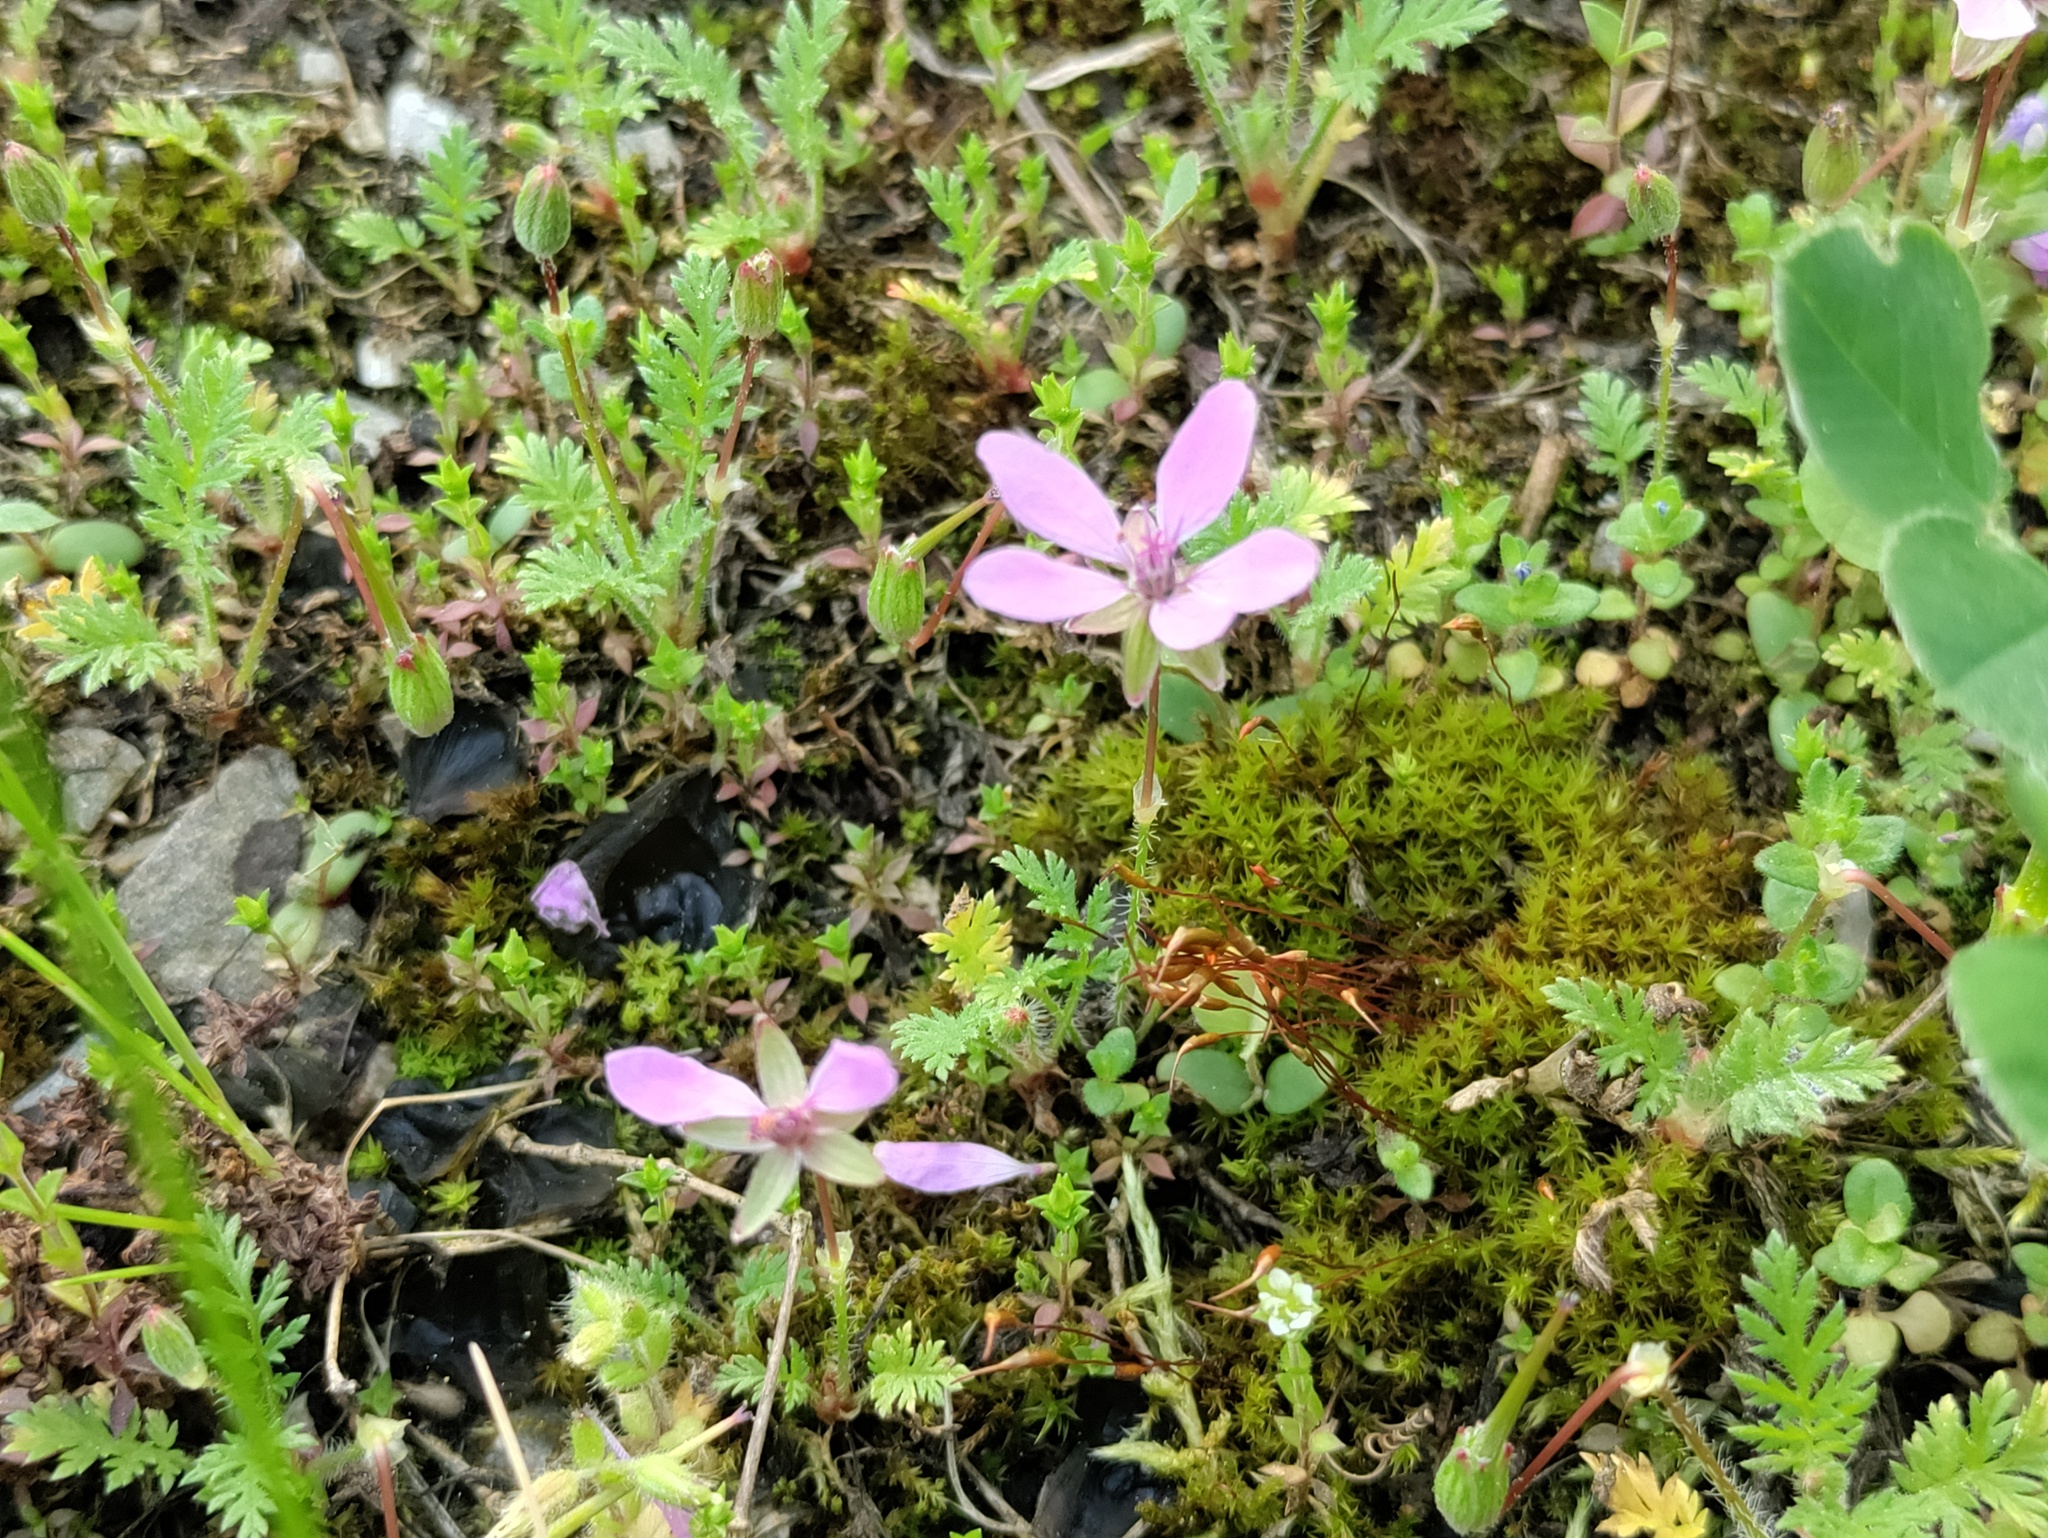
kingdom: Plantae
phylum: Tracheophyta
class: Magnoliopsida
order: Geraniales
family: Geraniaceae
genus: Erodium
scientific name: Erodium cicutarium
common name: Common stork's-bill
